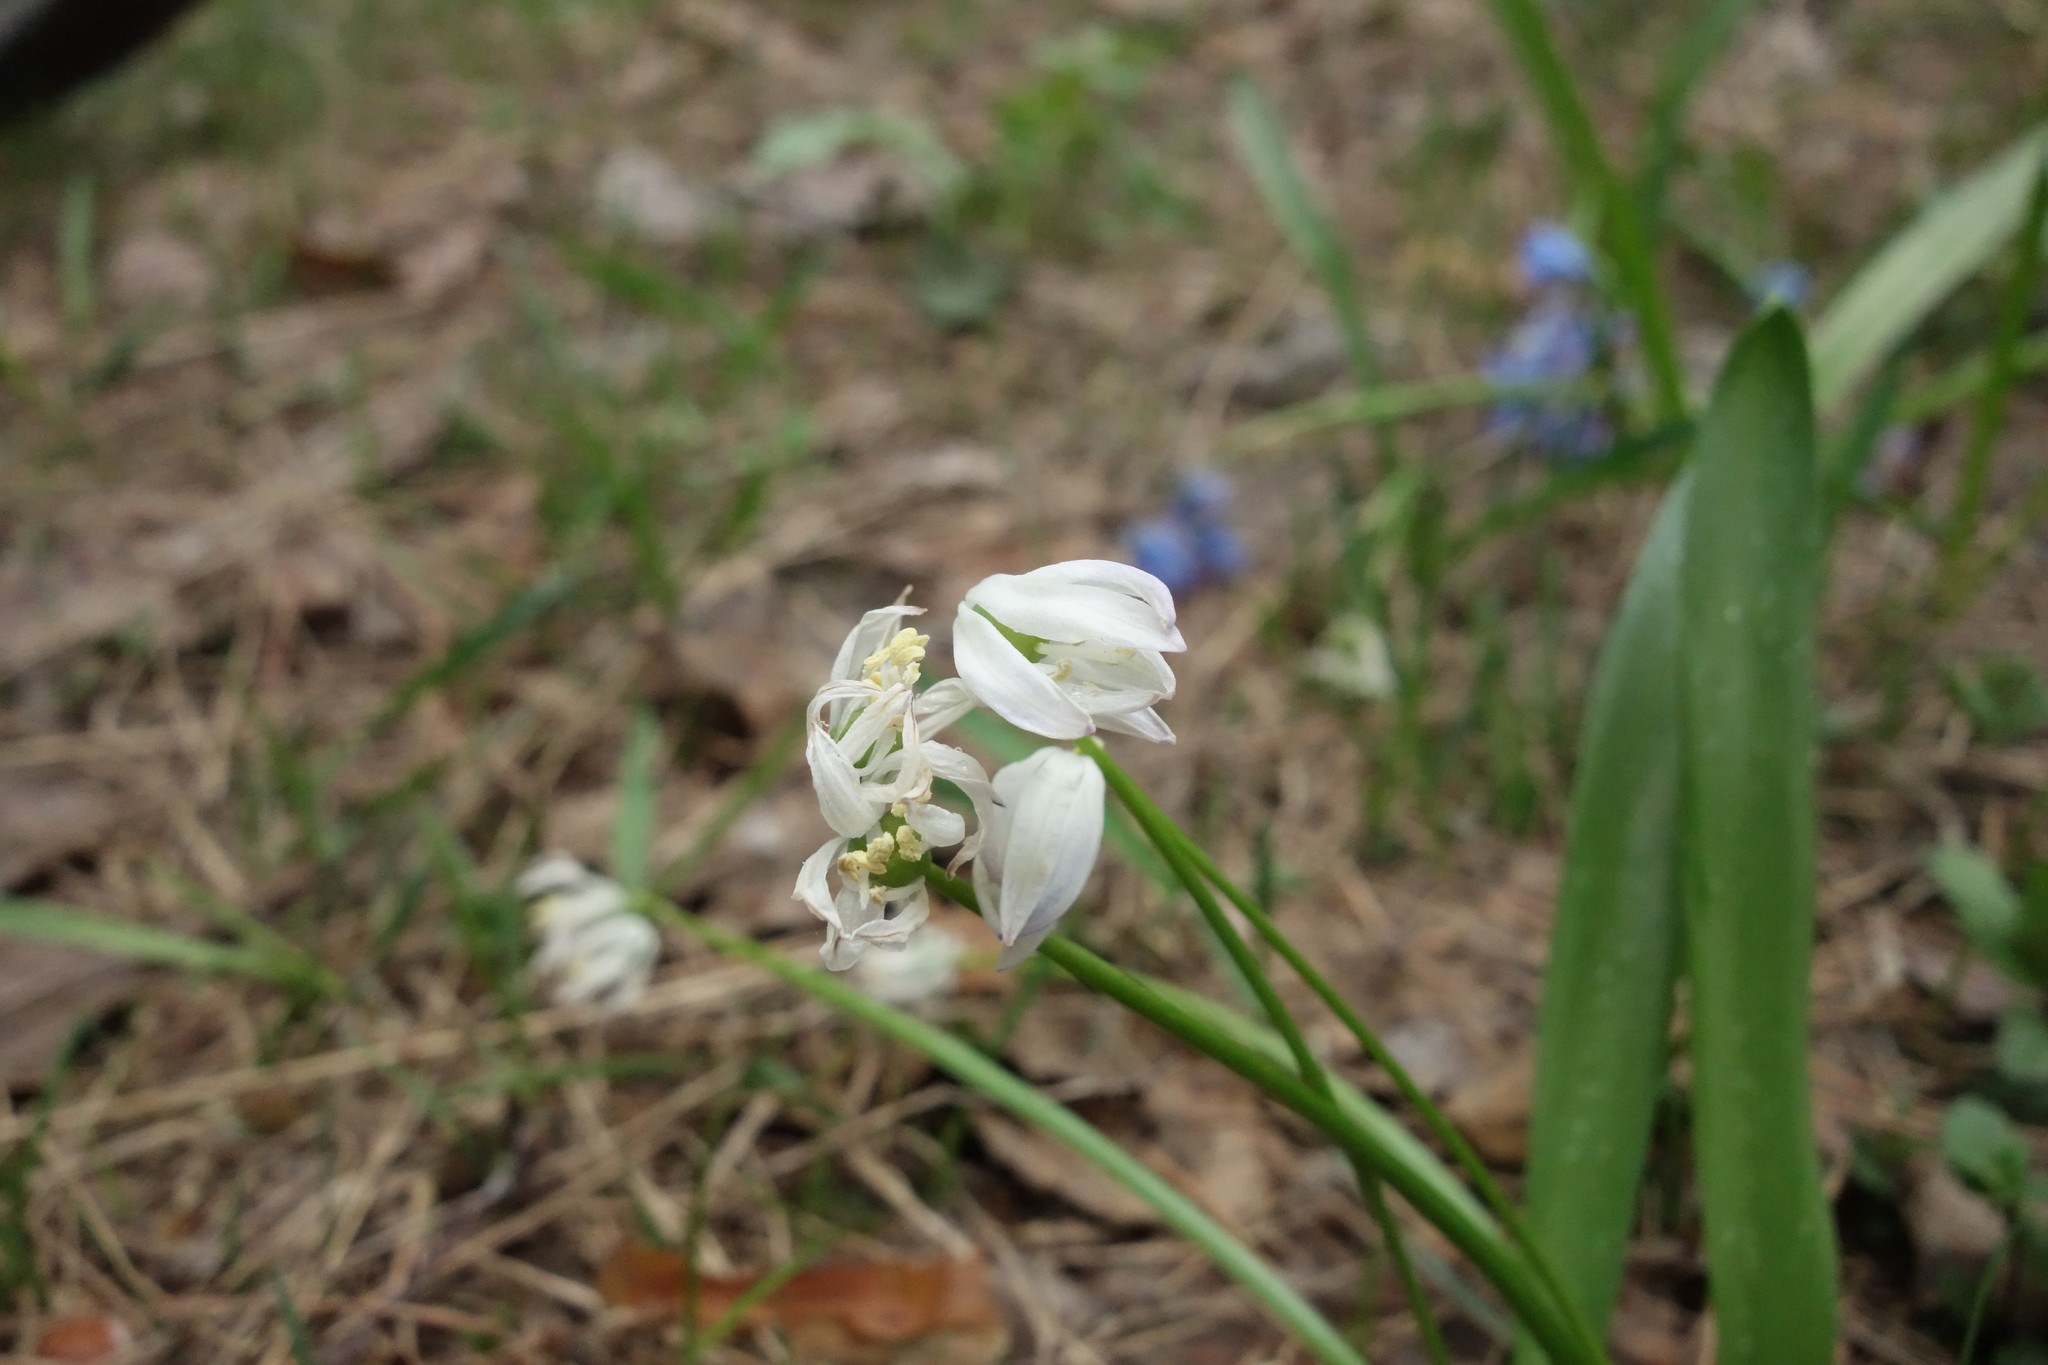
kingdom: Plantae
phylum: Tracheophyta
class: Liliopsida
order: Asparagales
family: Asparagaceae
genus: Scilla
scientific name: Scilla siberica
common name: Siberian squill
